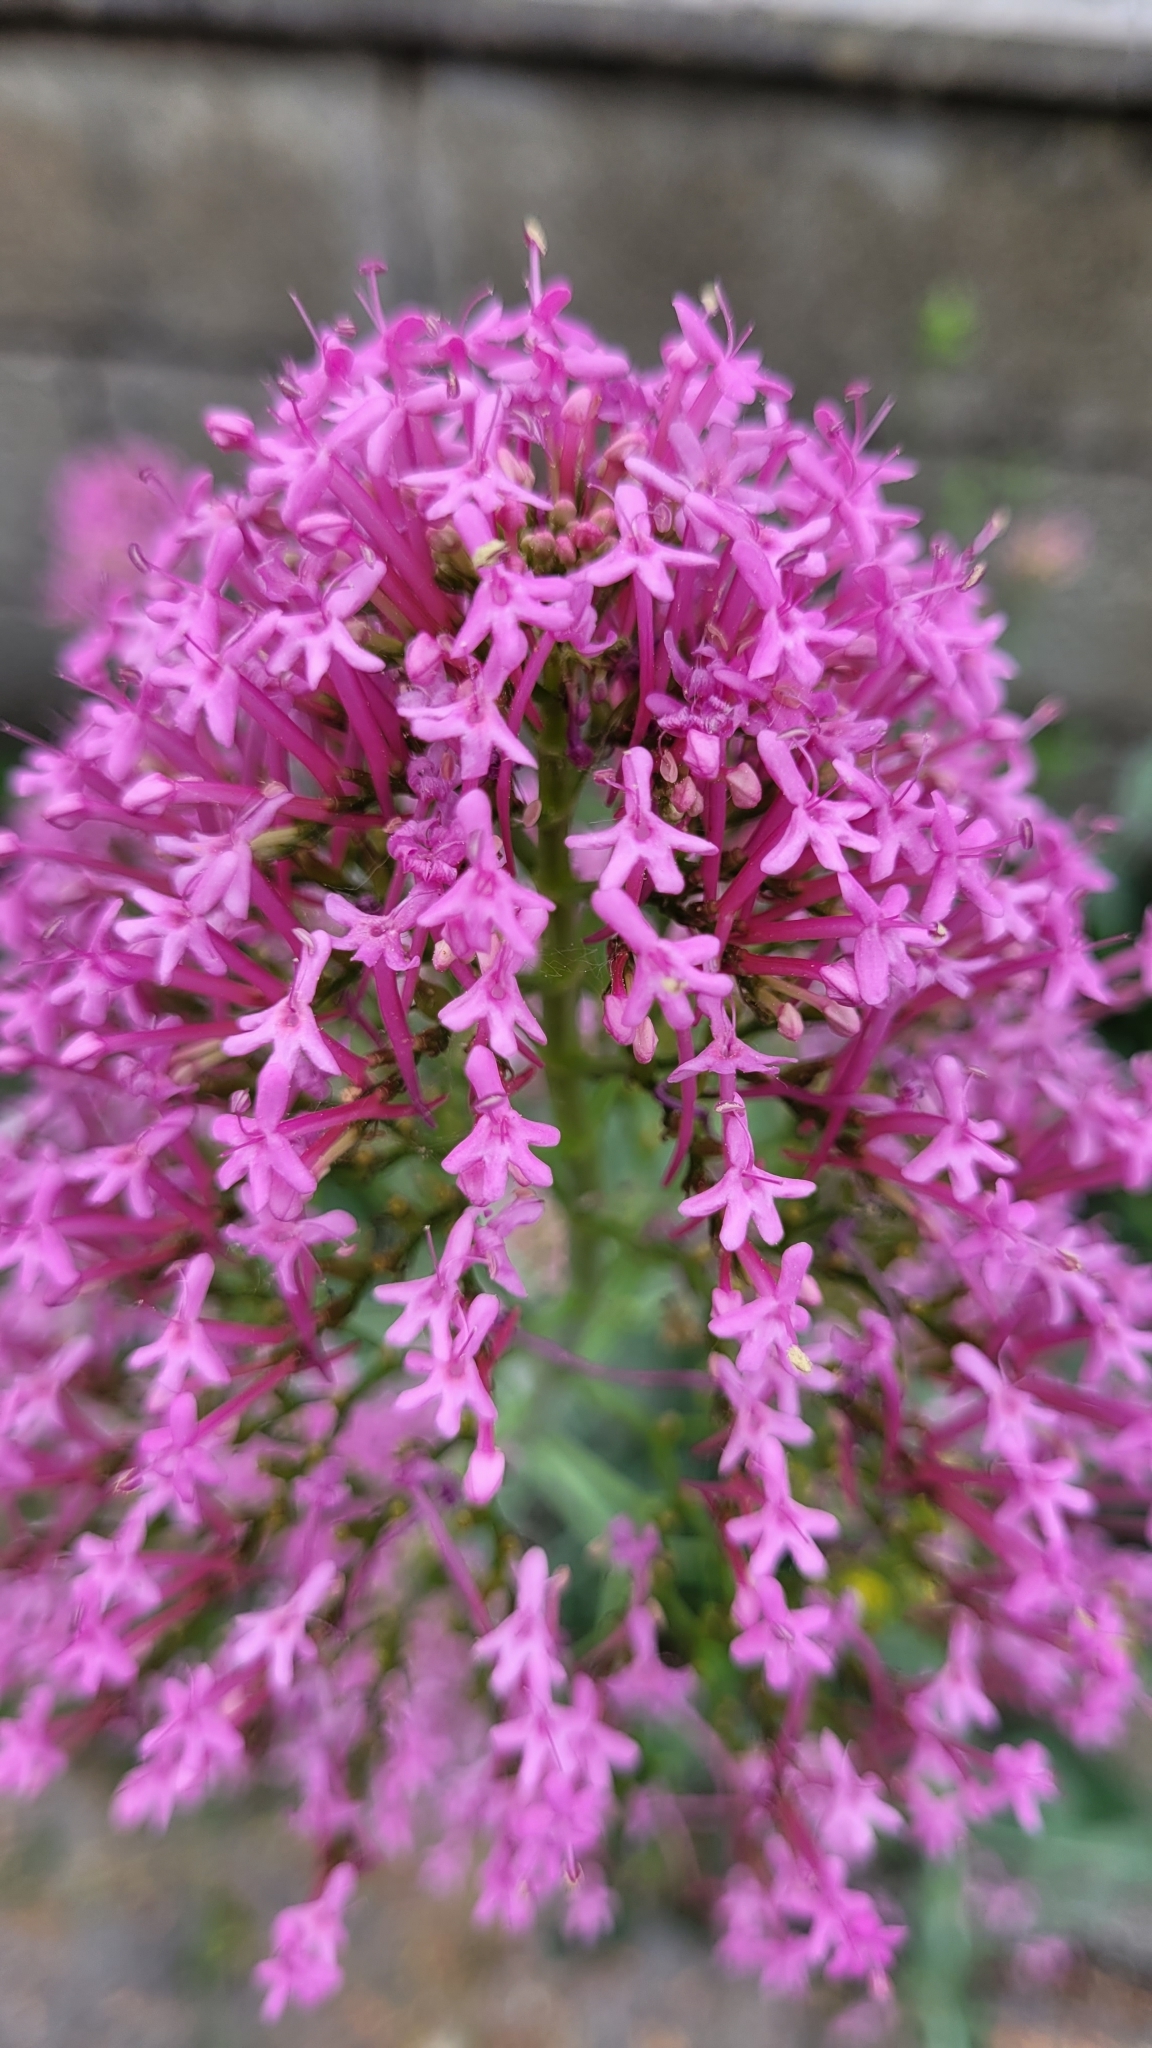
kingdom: Plantae
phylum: Tracheophyta
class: Magnoliopsida
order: Dipsacales
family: Caprifoliaceae
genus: Centranthus
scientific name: Centranthus ruber
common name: Red valerian
